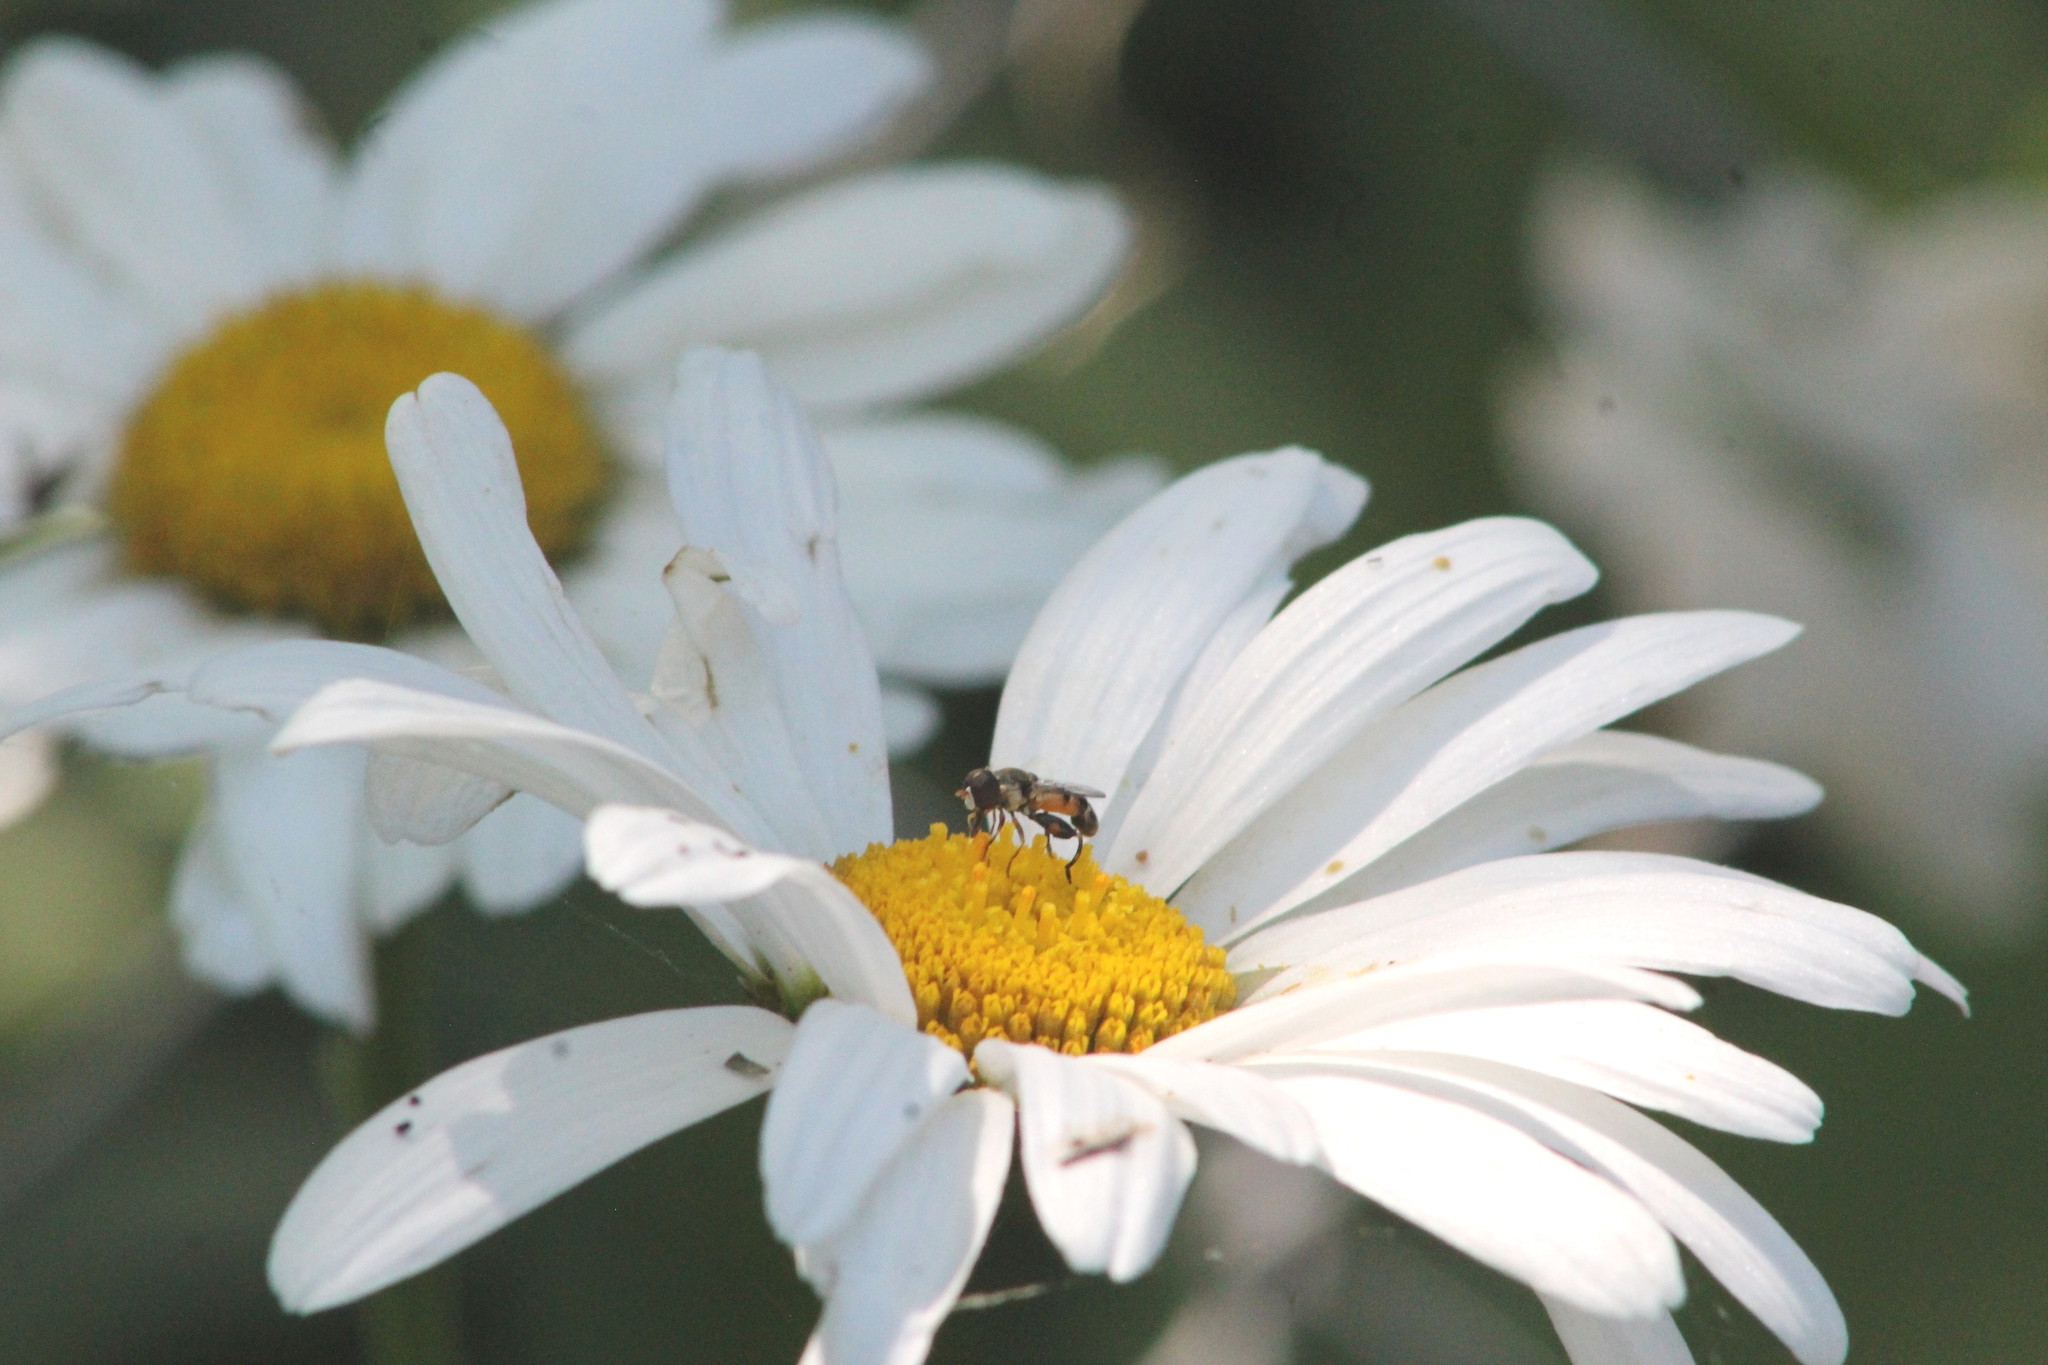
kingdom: Animalia
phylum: Arthropoda
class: Insecta
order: Diptera
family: Syrphidae
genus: Syritta
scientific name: Syritta pipiens
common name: Hover fly
